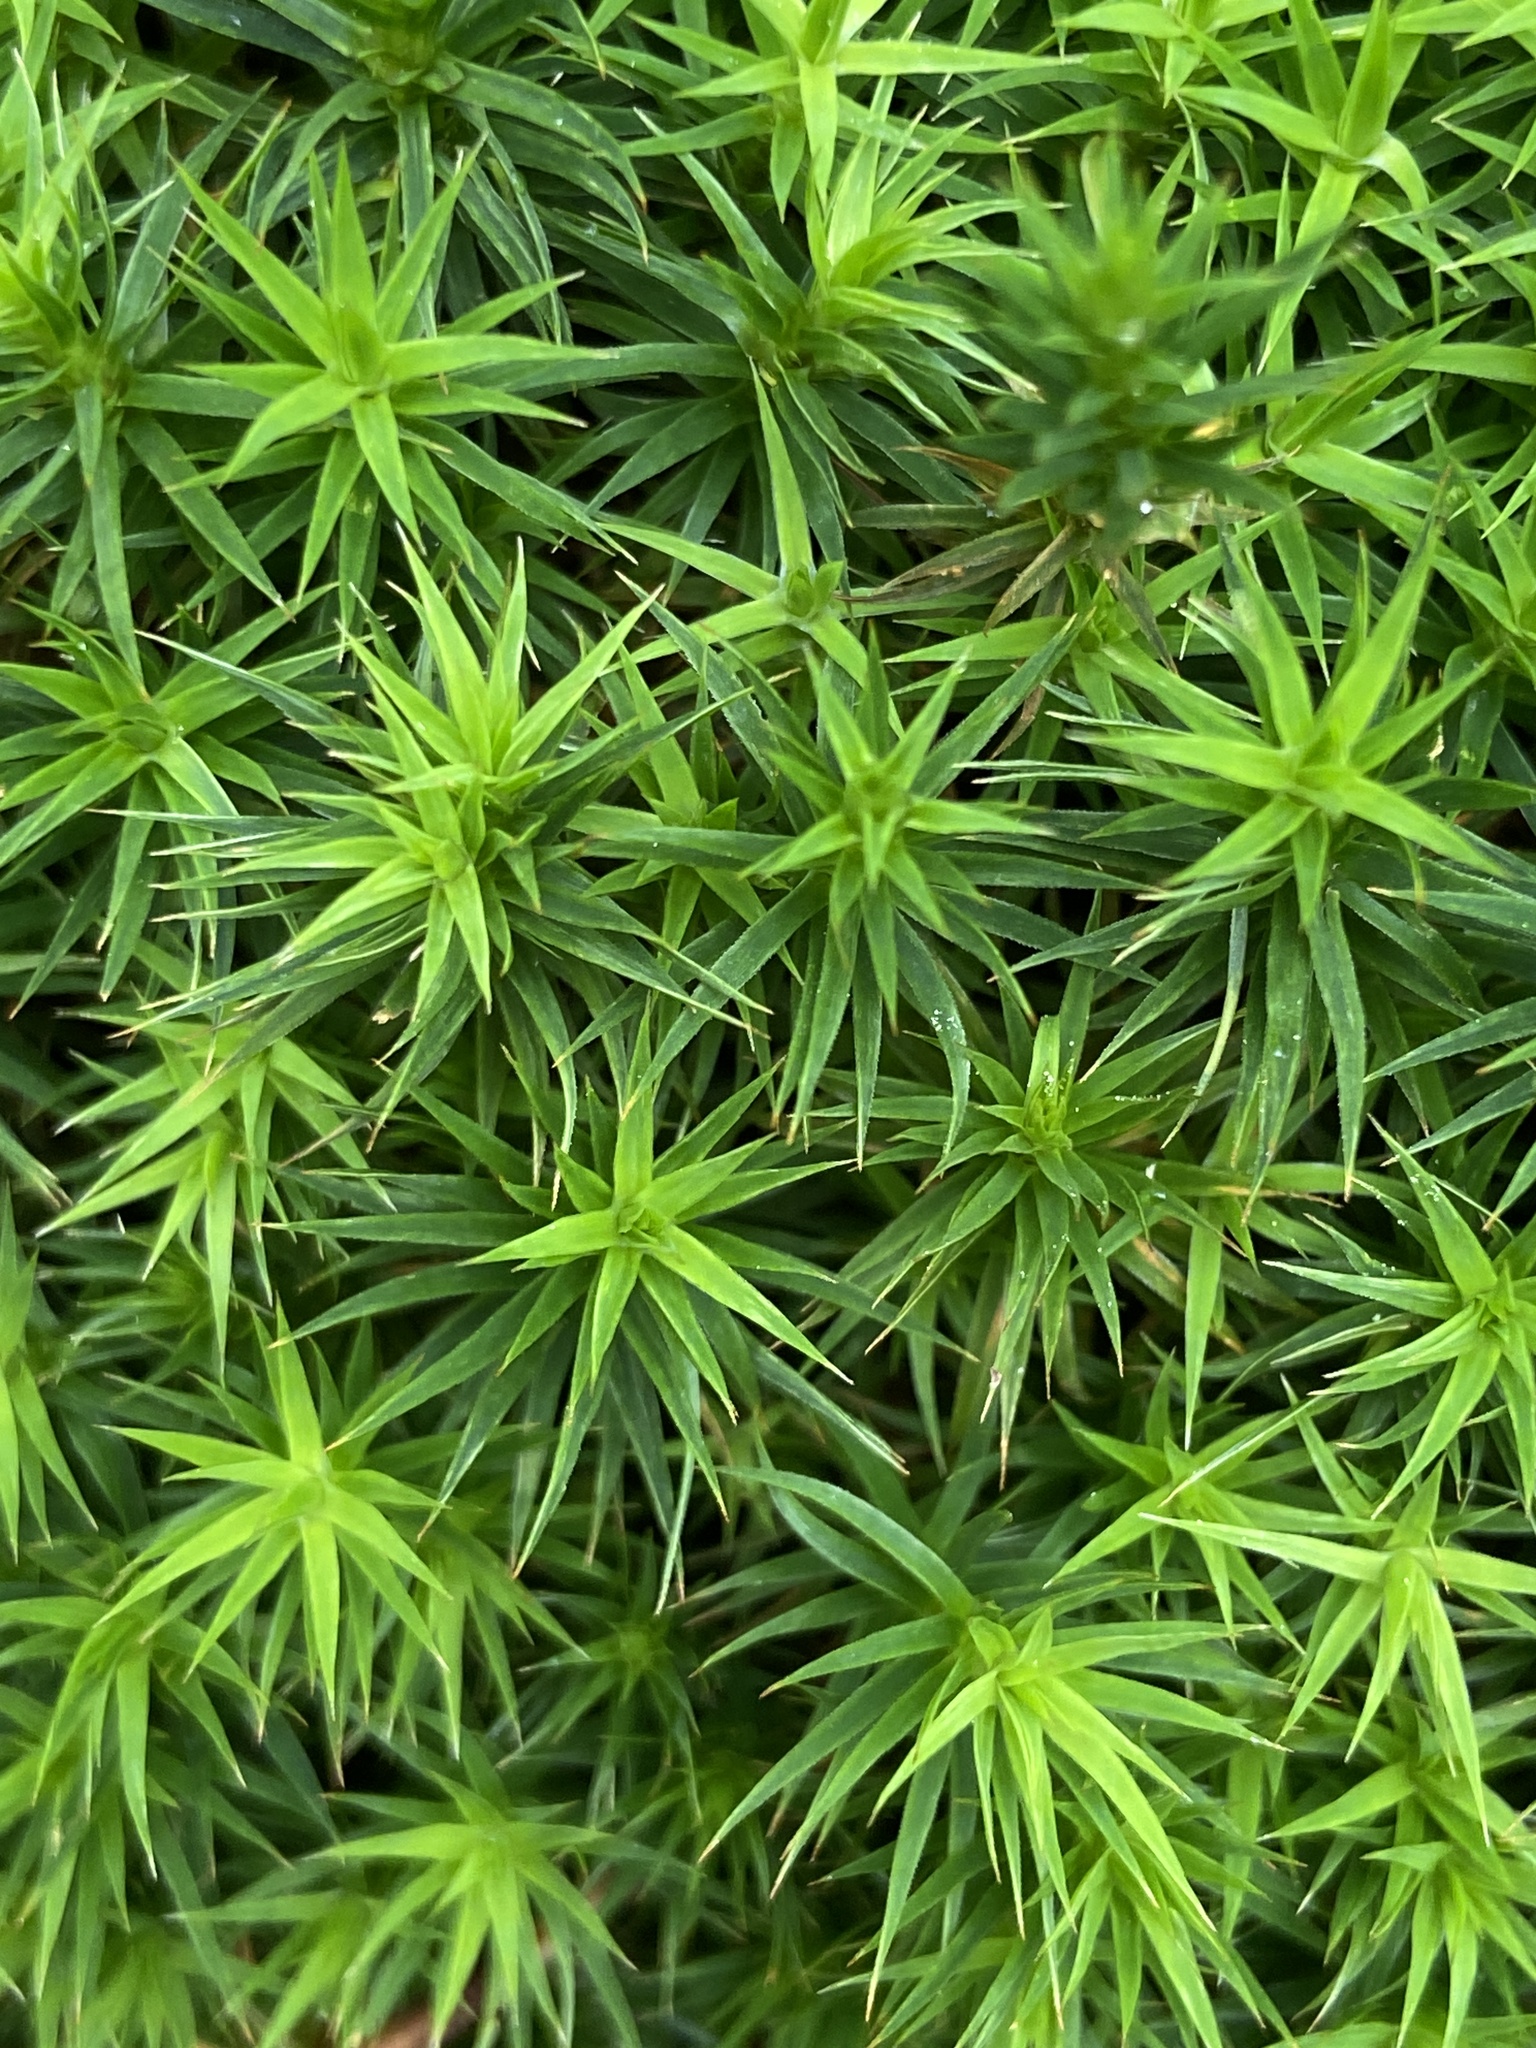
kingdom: Plantae
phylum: Bryophyta
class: Polytrichopsida
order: Polytrichales
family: Polytrichaceae
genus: Polytrichum
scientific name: Polytrichum formosum
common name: Bank haircap moss
